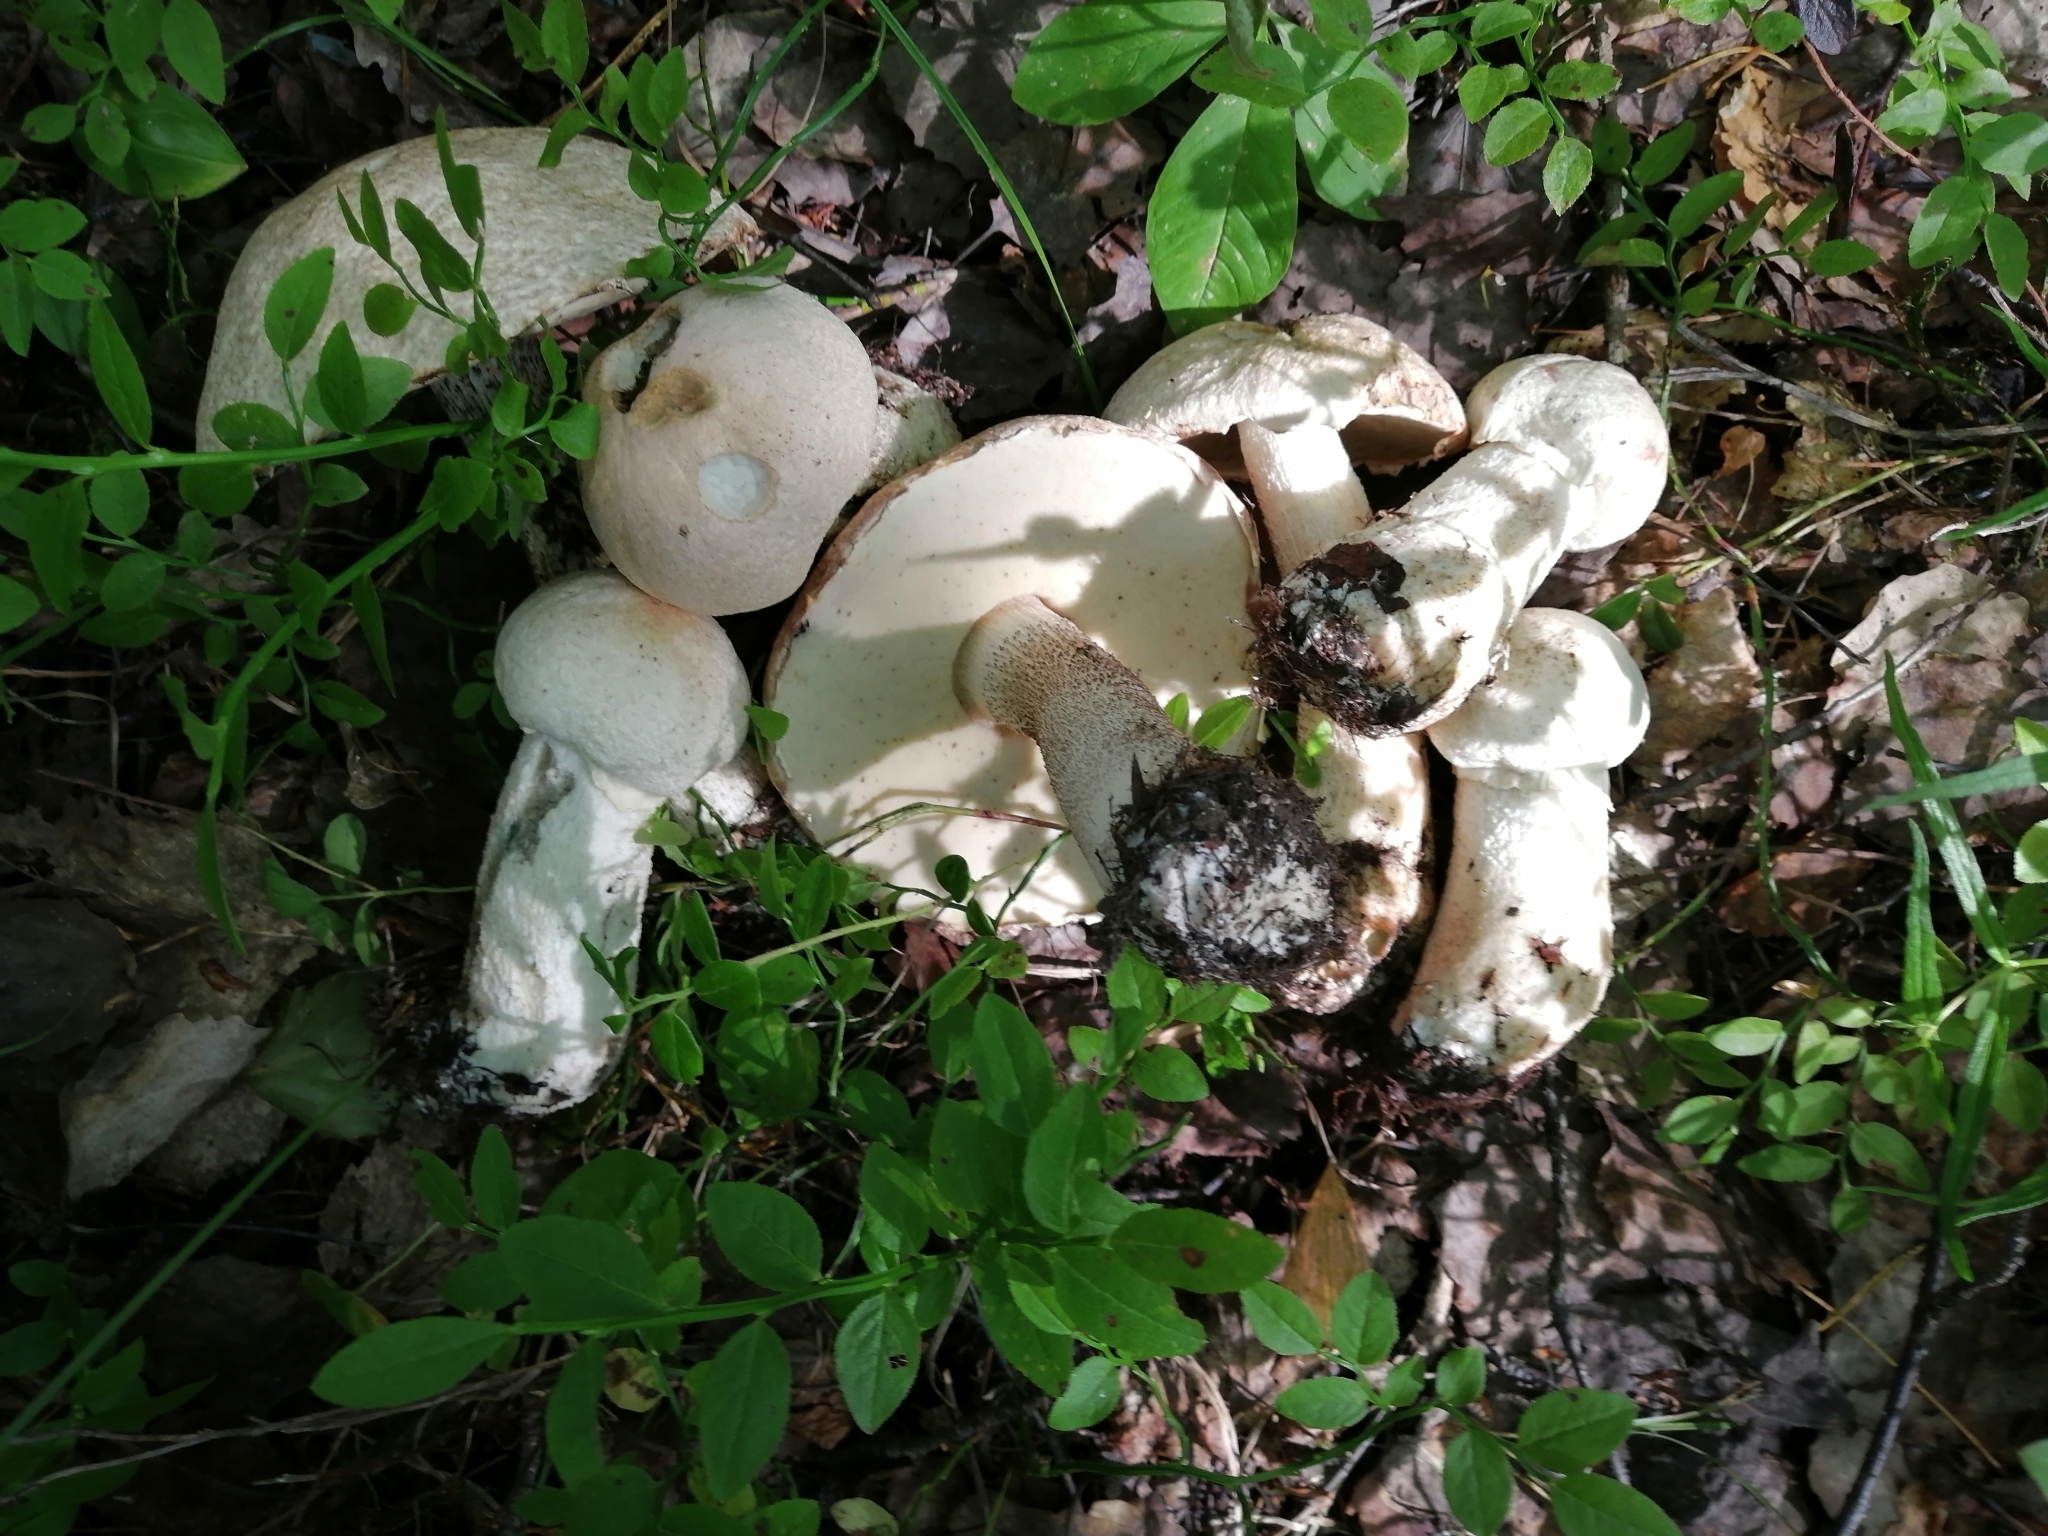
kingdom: Fungi
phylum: Basidiomycota
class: Agaricomycetes
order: Boletales
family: Boletaceae
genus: Leccinum
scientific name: Leccinum versipelle
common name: Orange birch bolete
